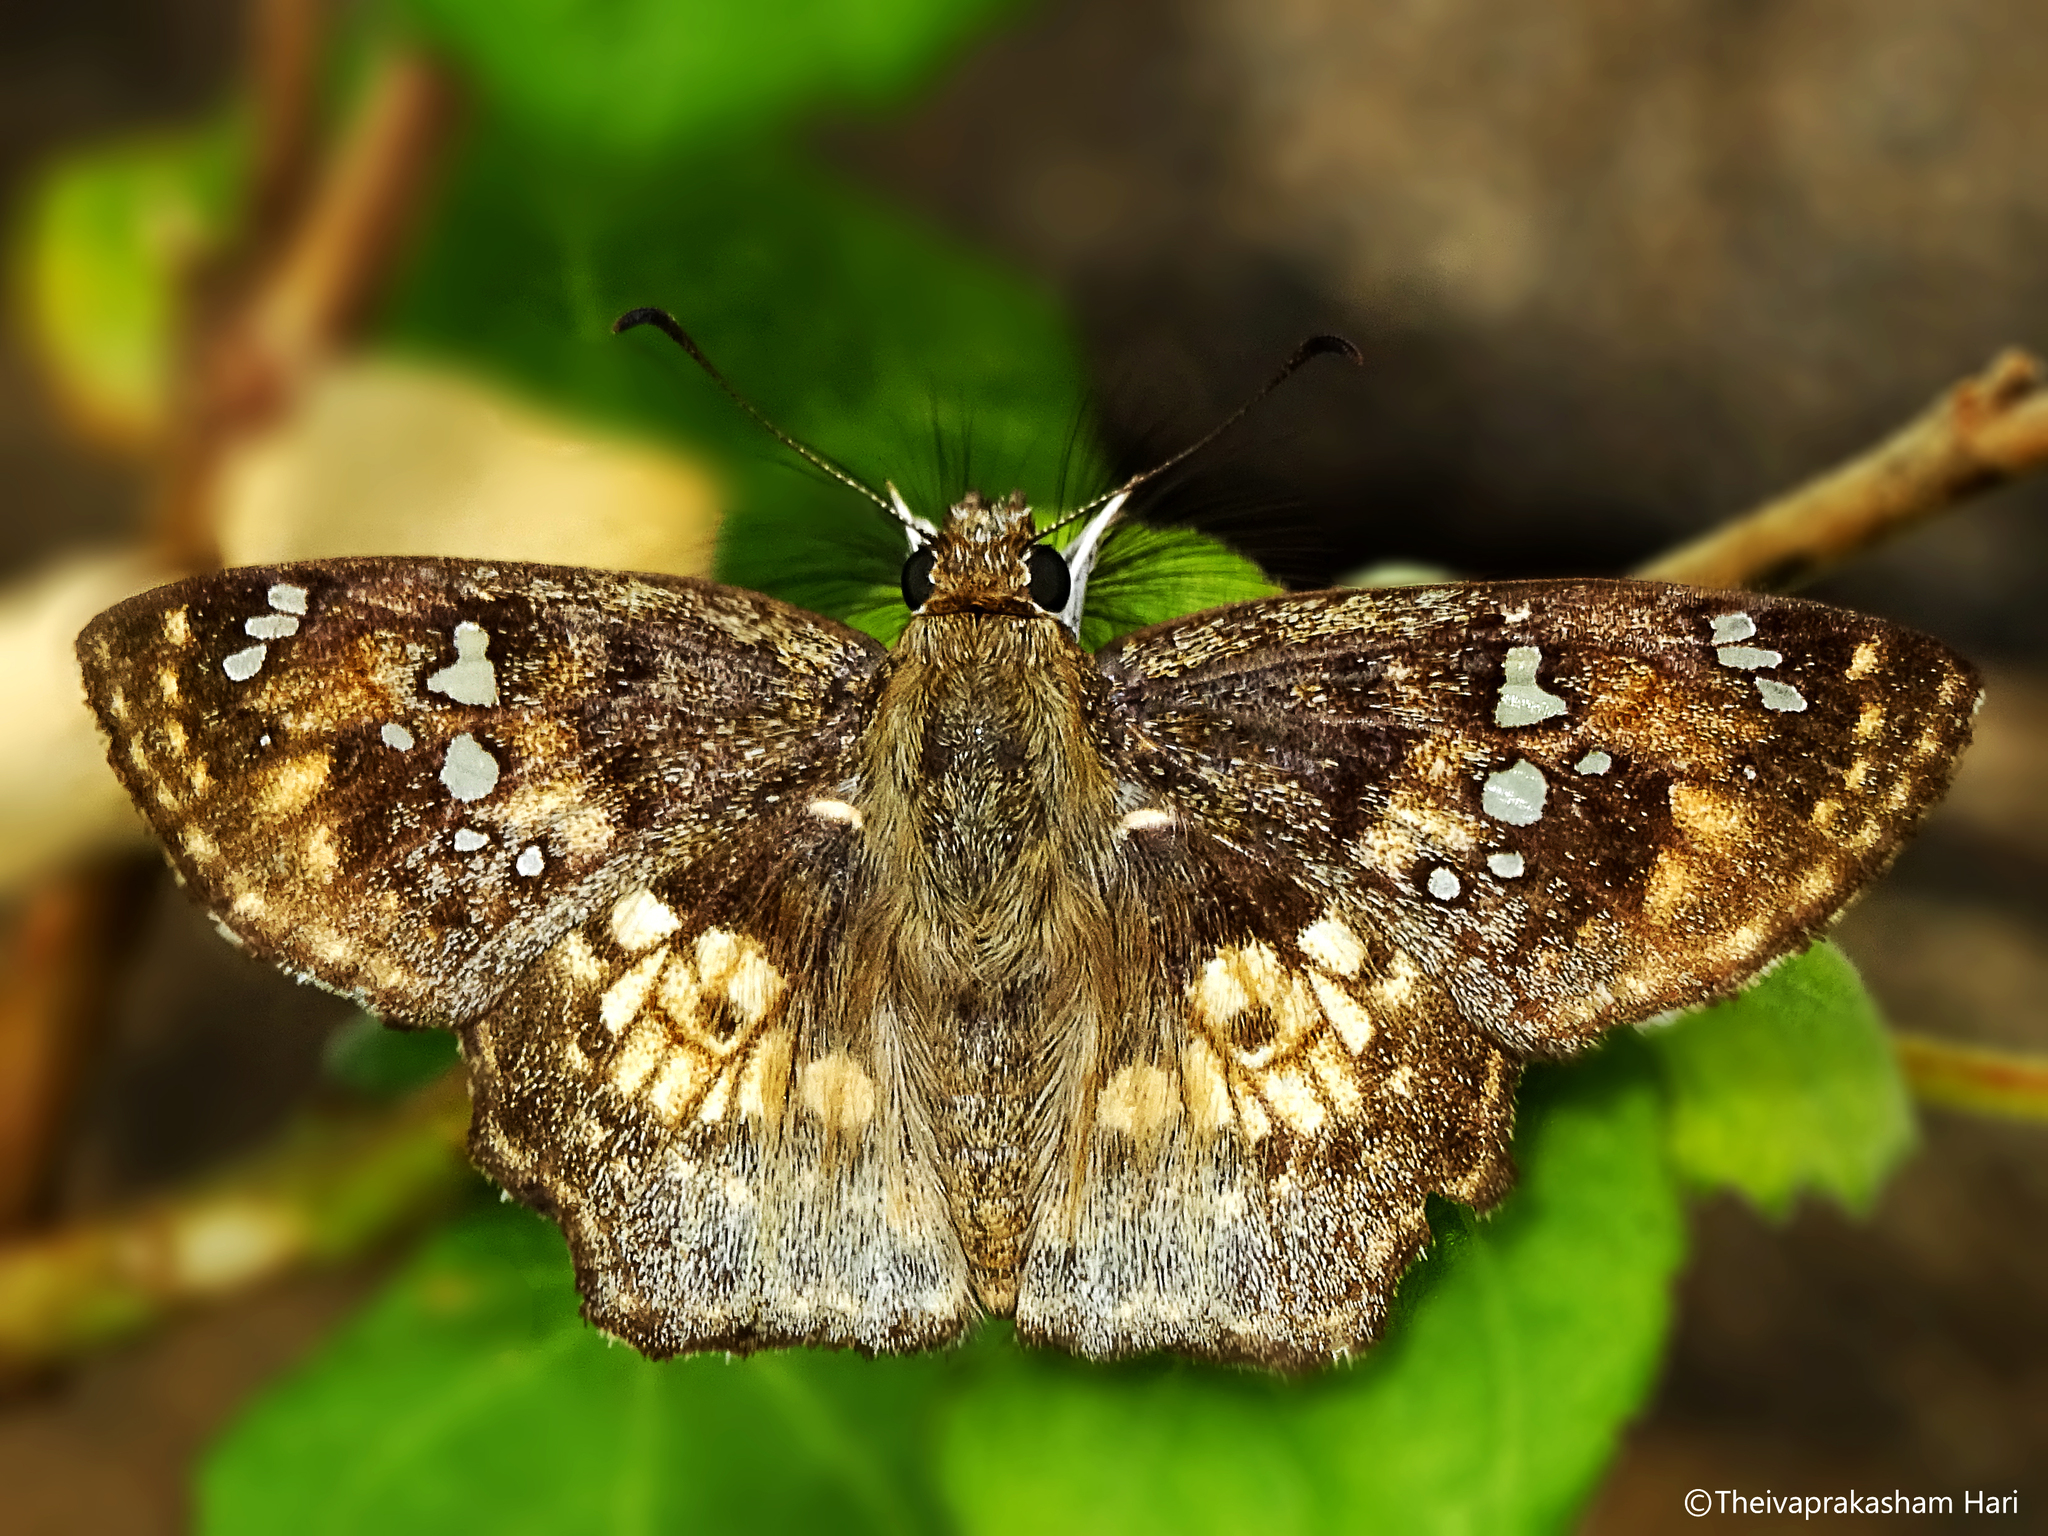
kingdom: Animalia
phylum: Arthropoda
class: Insecta
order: Lepidoptera
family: Hesperiidae
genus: Caprona
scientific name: Caprona ransonnettii
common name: Golden angle
